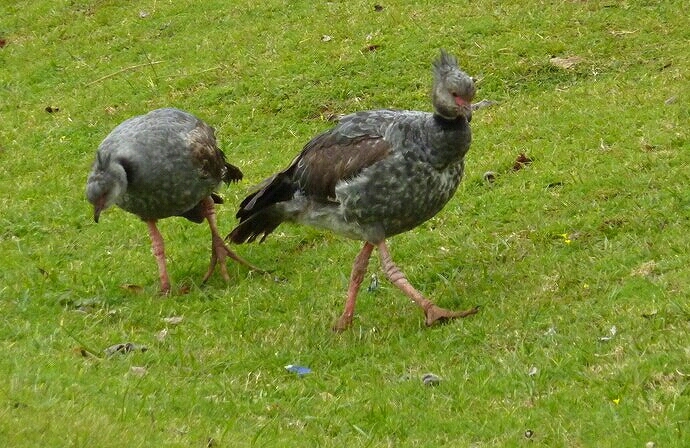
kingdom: Animalia
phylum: Chordata
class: Aves
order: Anseriformes
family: Anhimidae
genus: Chauna
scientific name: Chauna torquata
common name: Southern screamer
